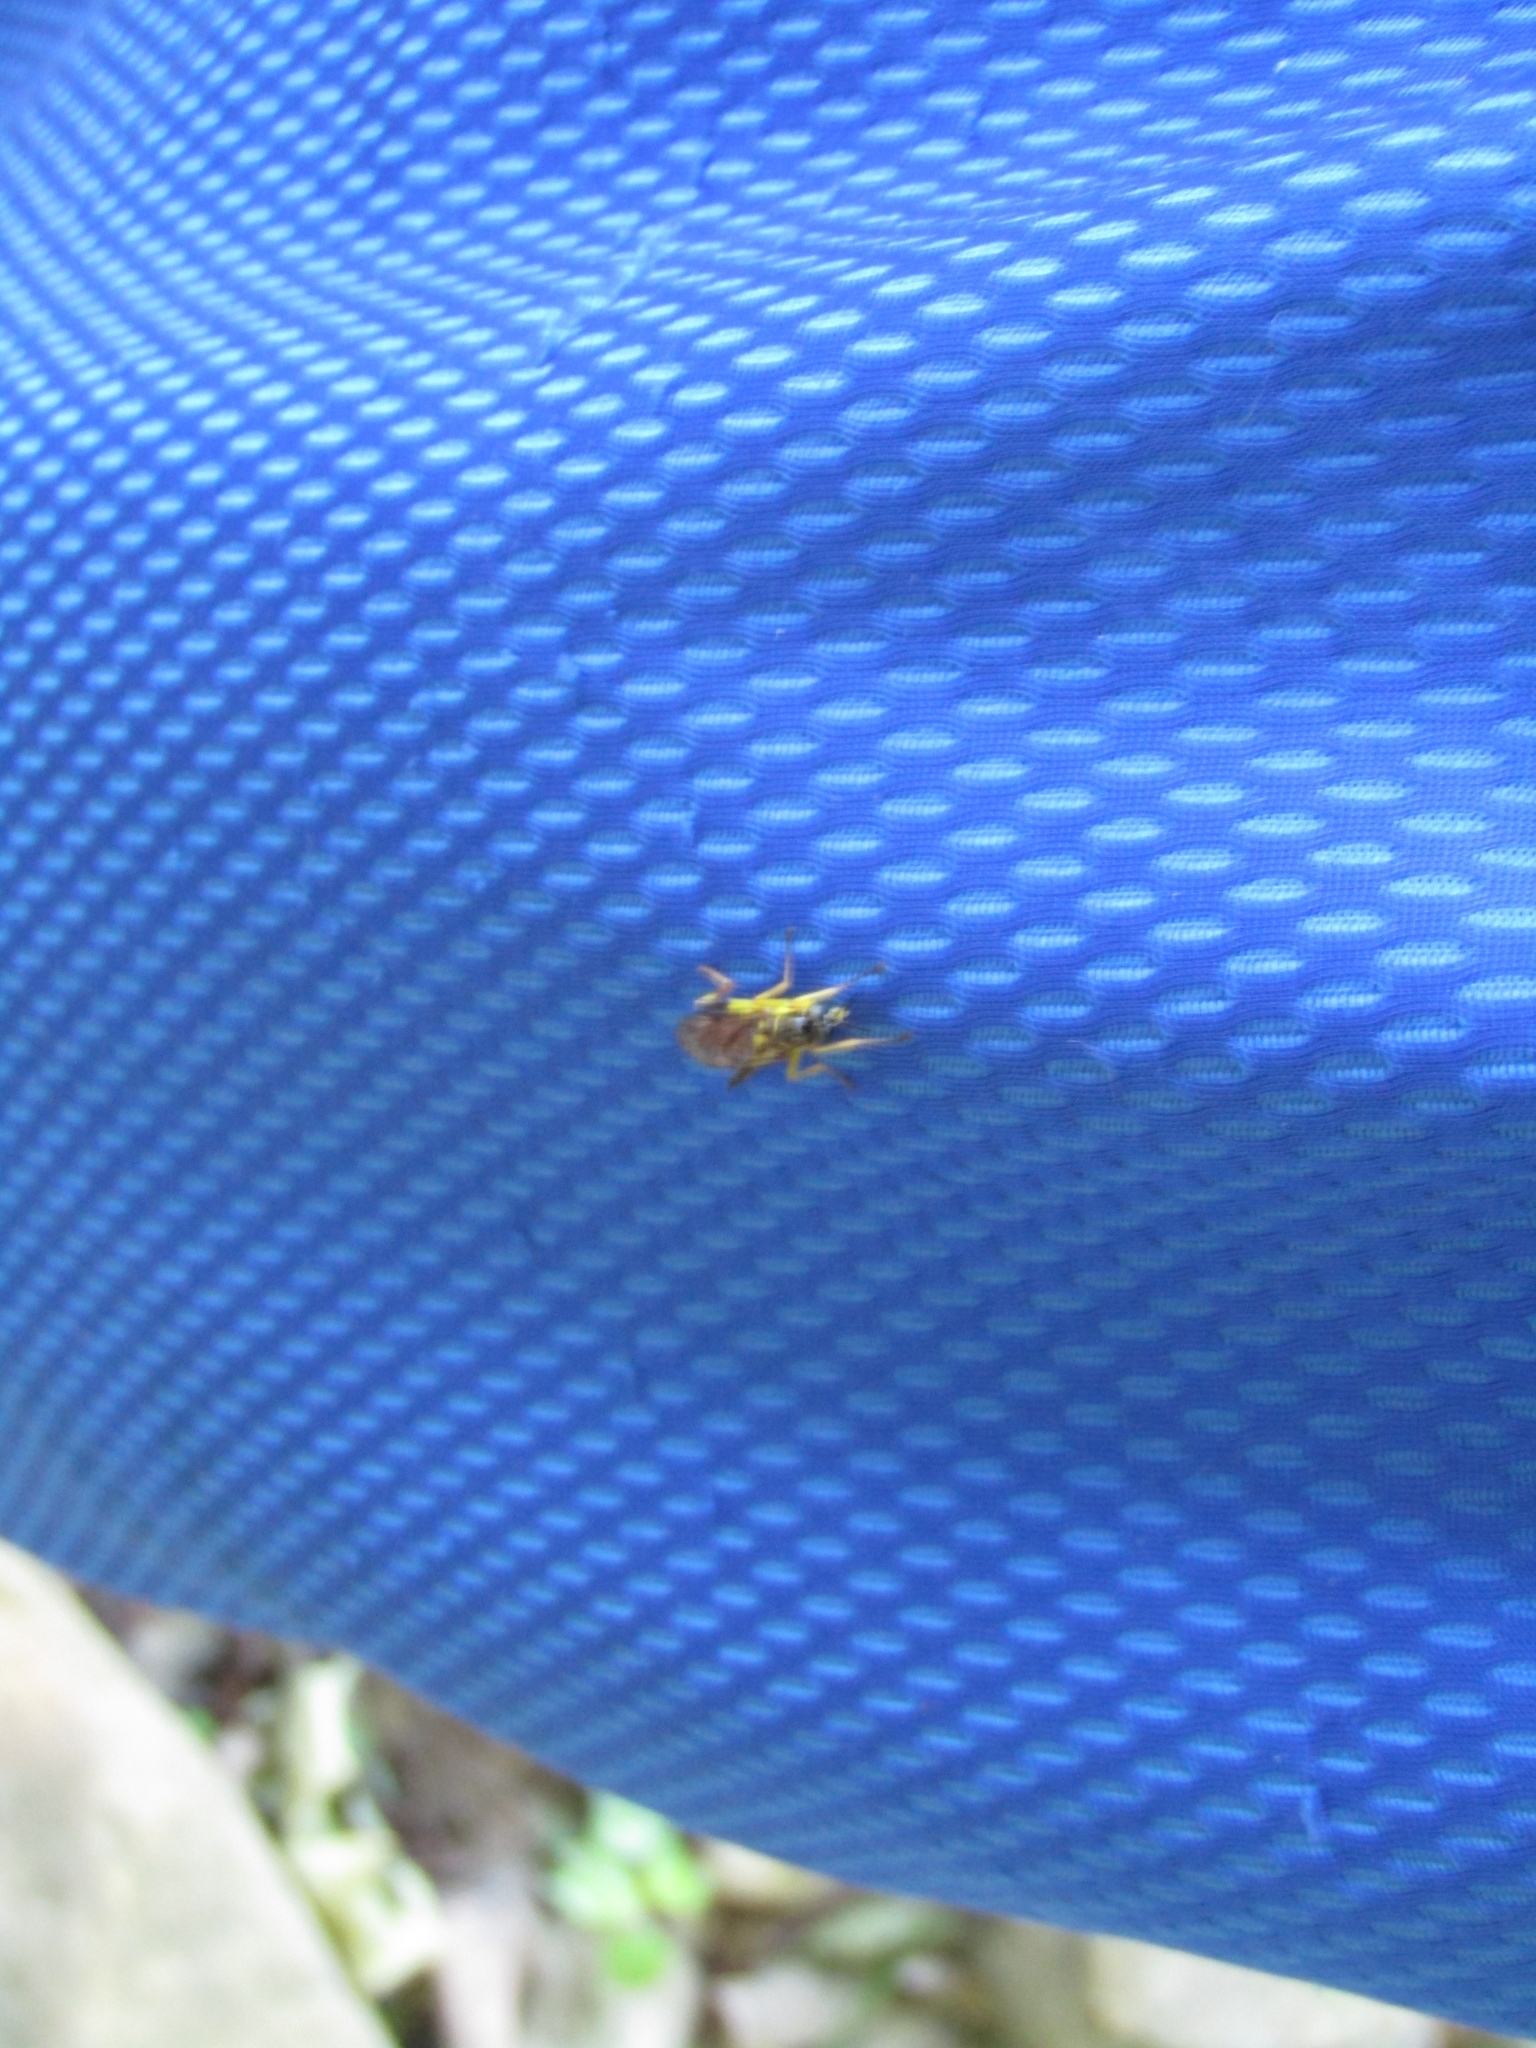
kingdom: Animalia
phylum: Arthropoda
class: Insecta
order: Diptera
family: Xylomyidae
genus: Xylomya
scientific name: Xylomya simillima
